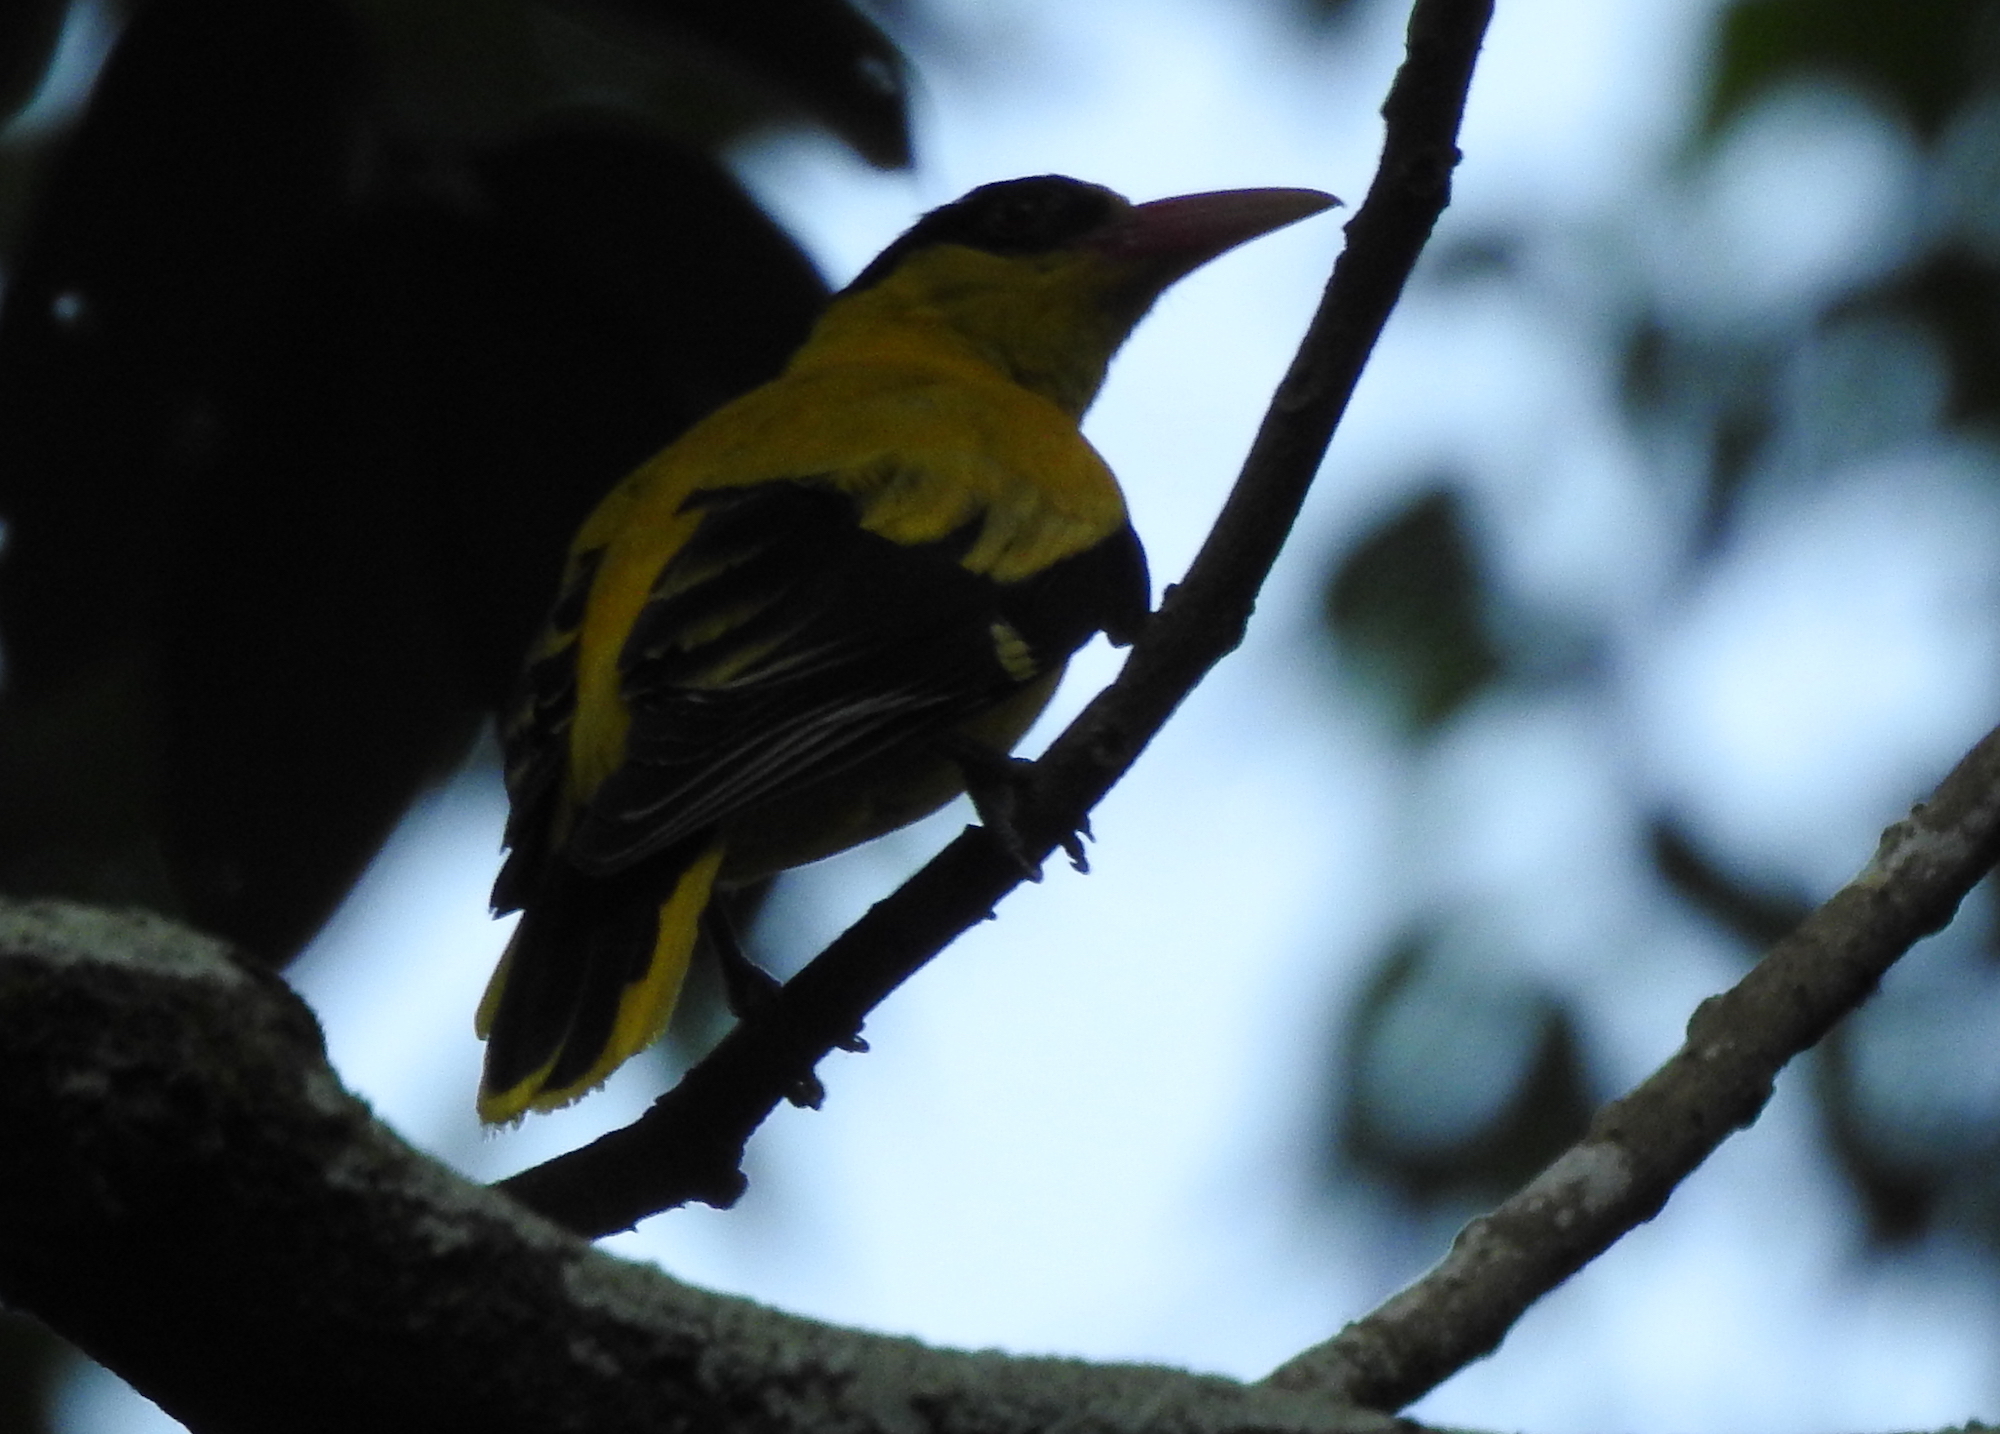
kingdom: Animalia
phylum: Chordata
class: Aves
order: Passeriformes
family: Oriolidae
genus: Oriolus
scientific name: Oriolus chinensis
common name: Black-naped oriole
